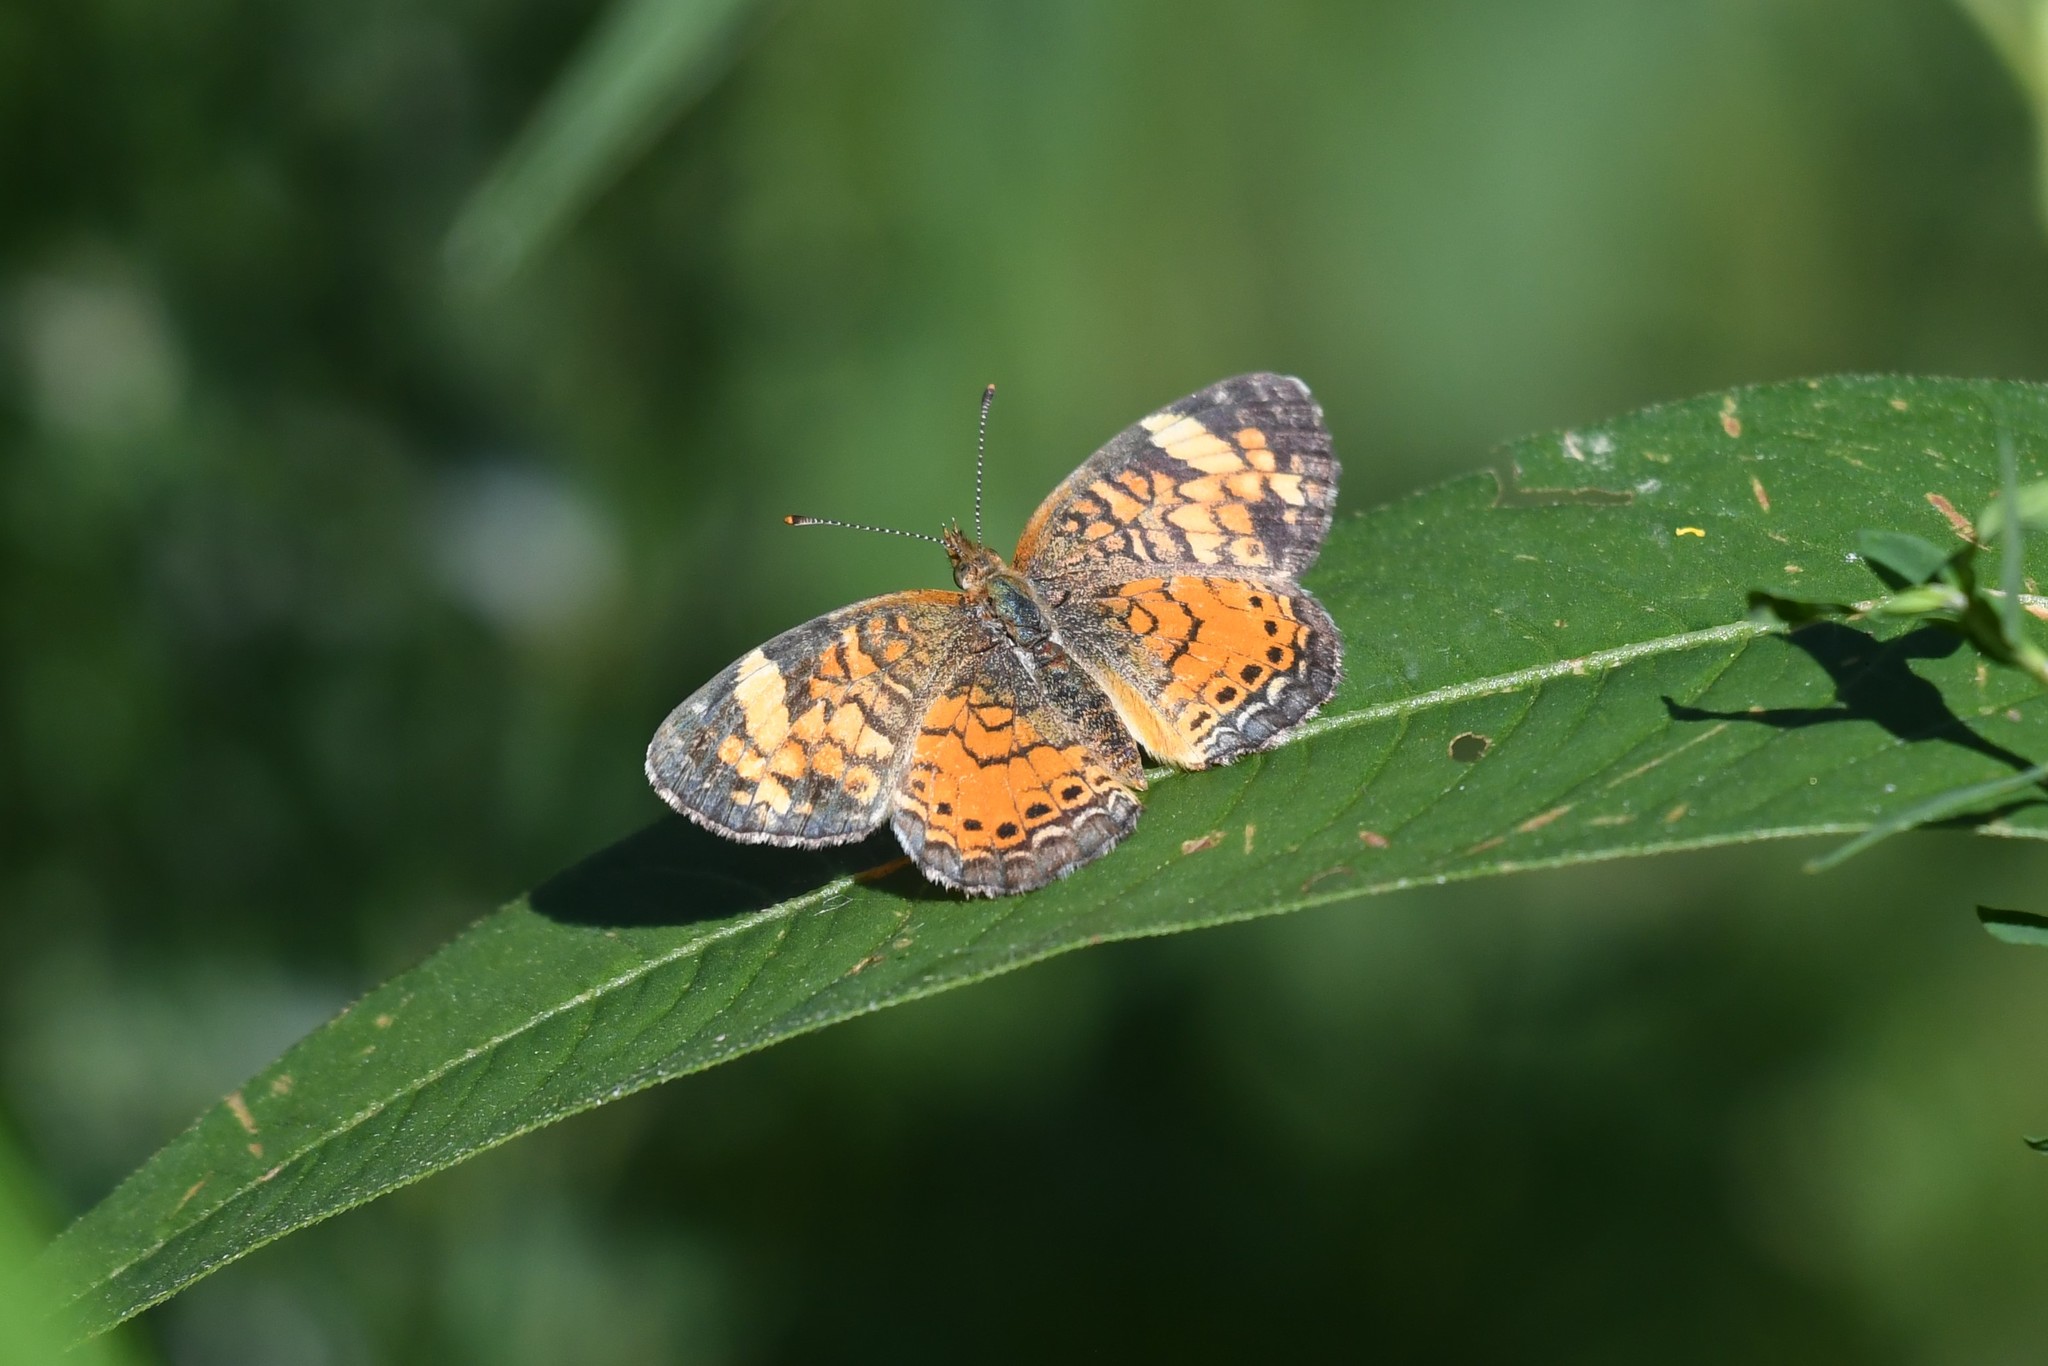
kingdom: Animalia
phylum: Arthropoda
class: Insecta
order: Lepidoptera
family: Nymphalidae
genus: Phyciodes
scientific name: Phyciodes tharos
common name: Pearl crescent
